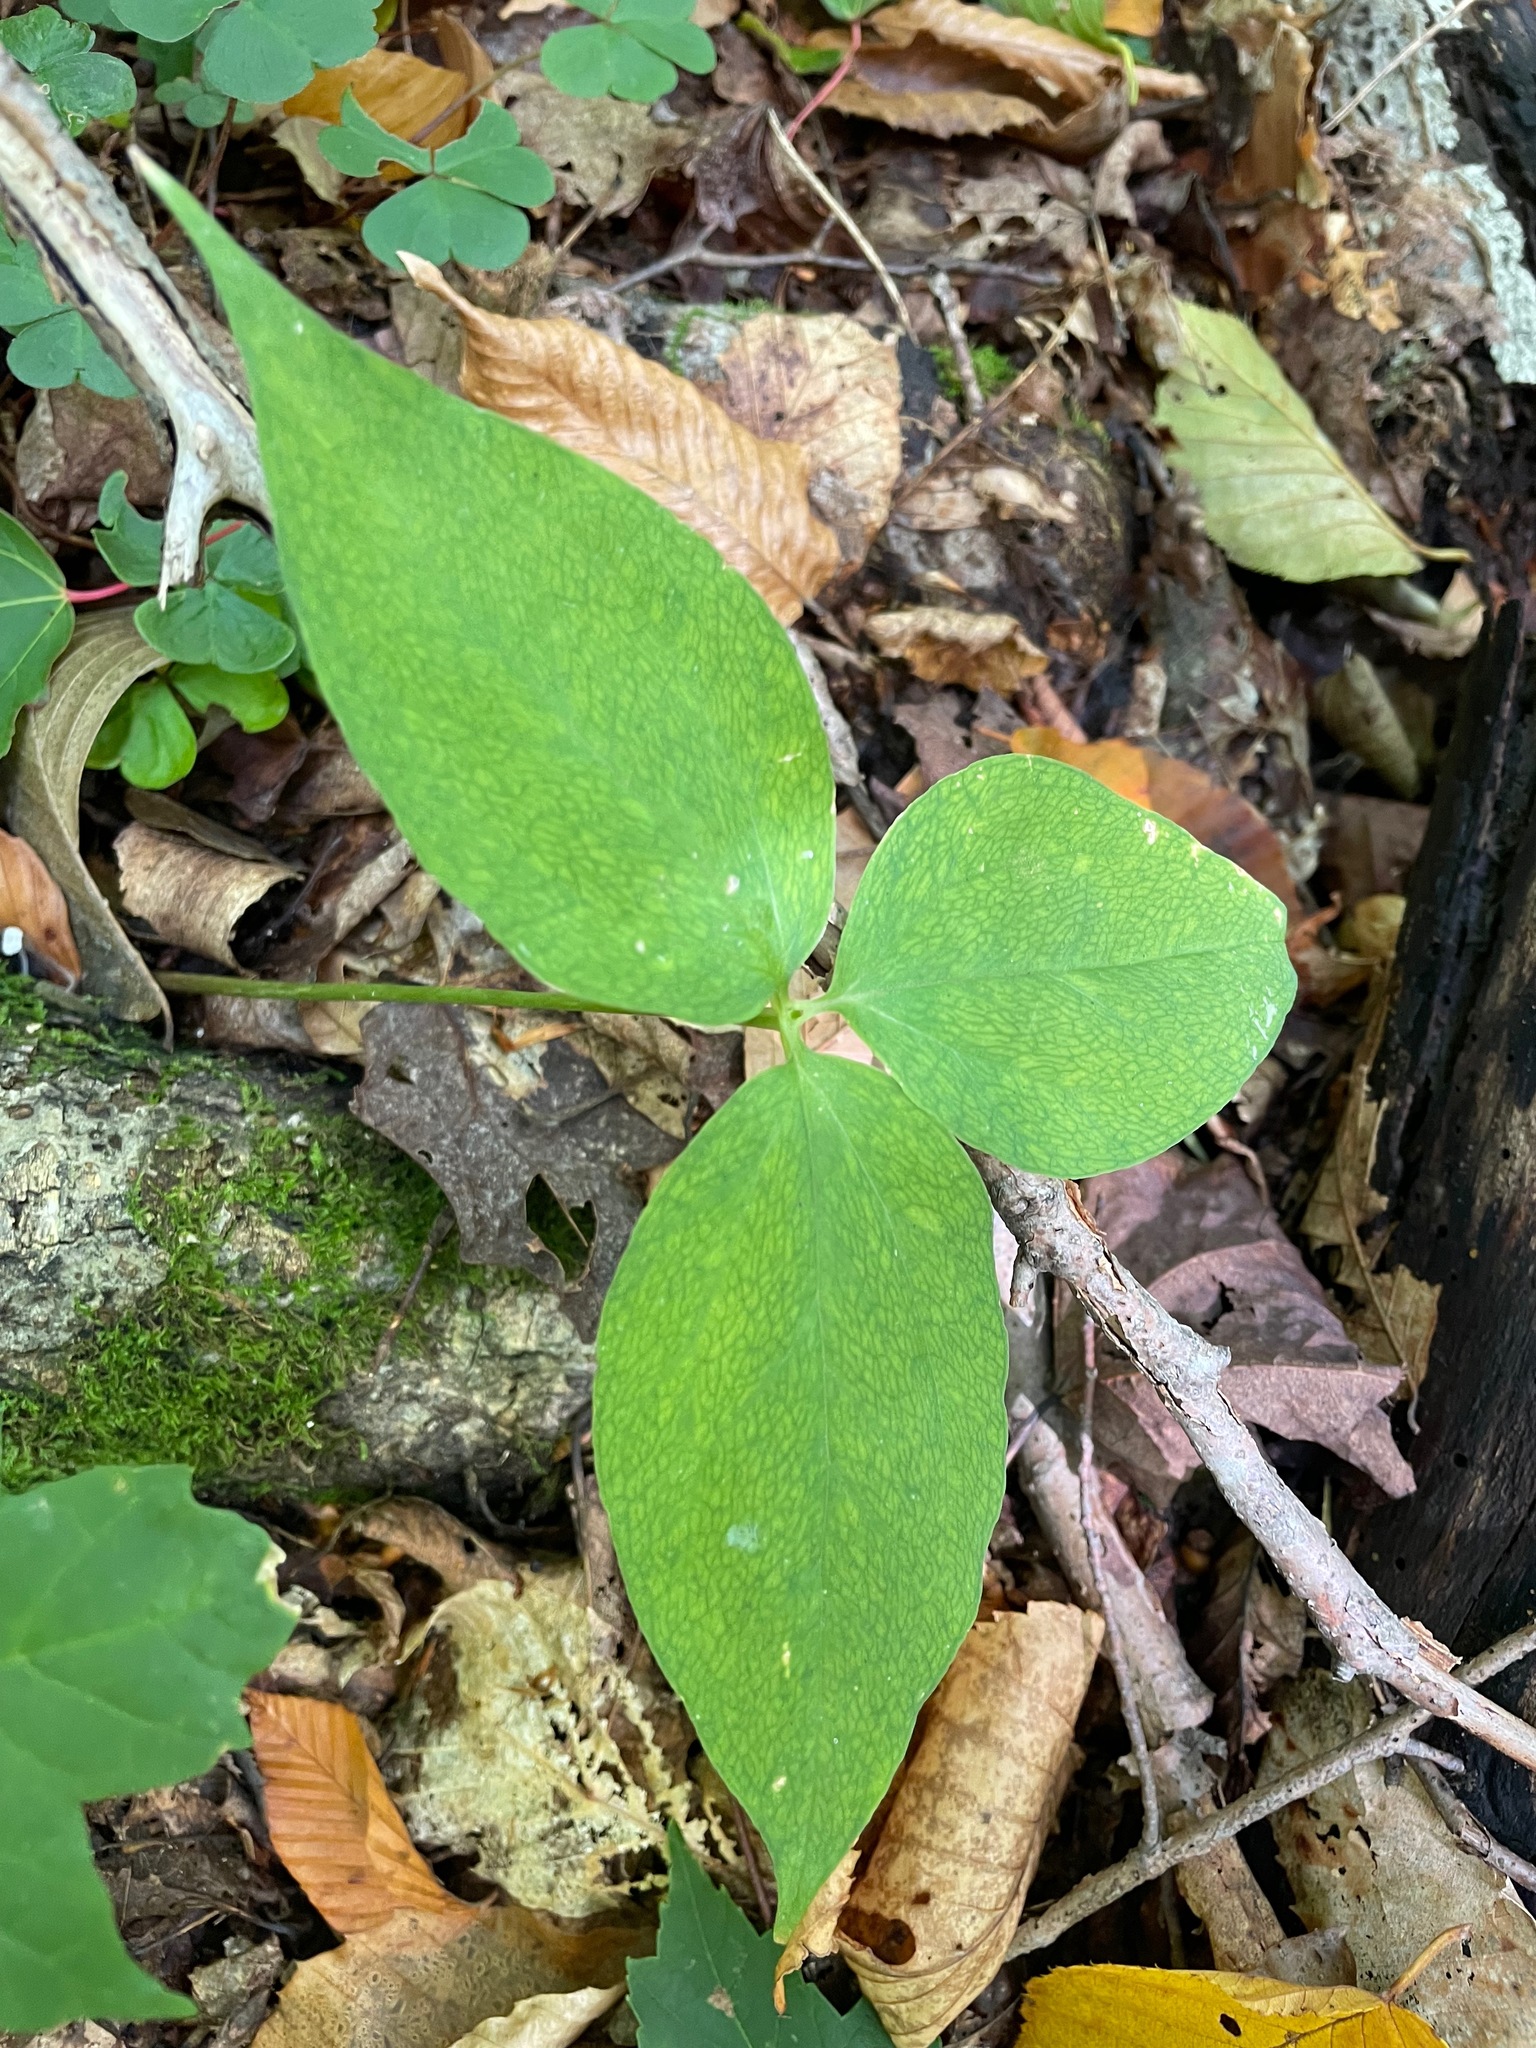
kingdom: Plantae
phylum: Tracheophyta
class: Liliopsida
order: Liliales
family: Melanthiaceae
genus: Trillium
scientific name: Trillium undulatum
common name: Paint trillium
